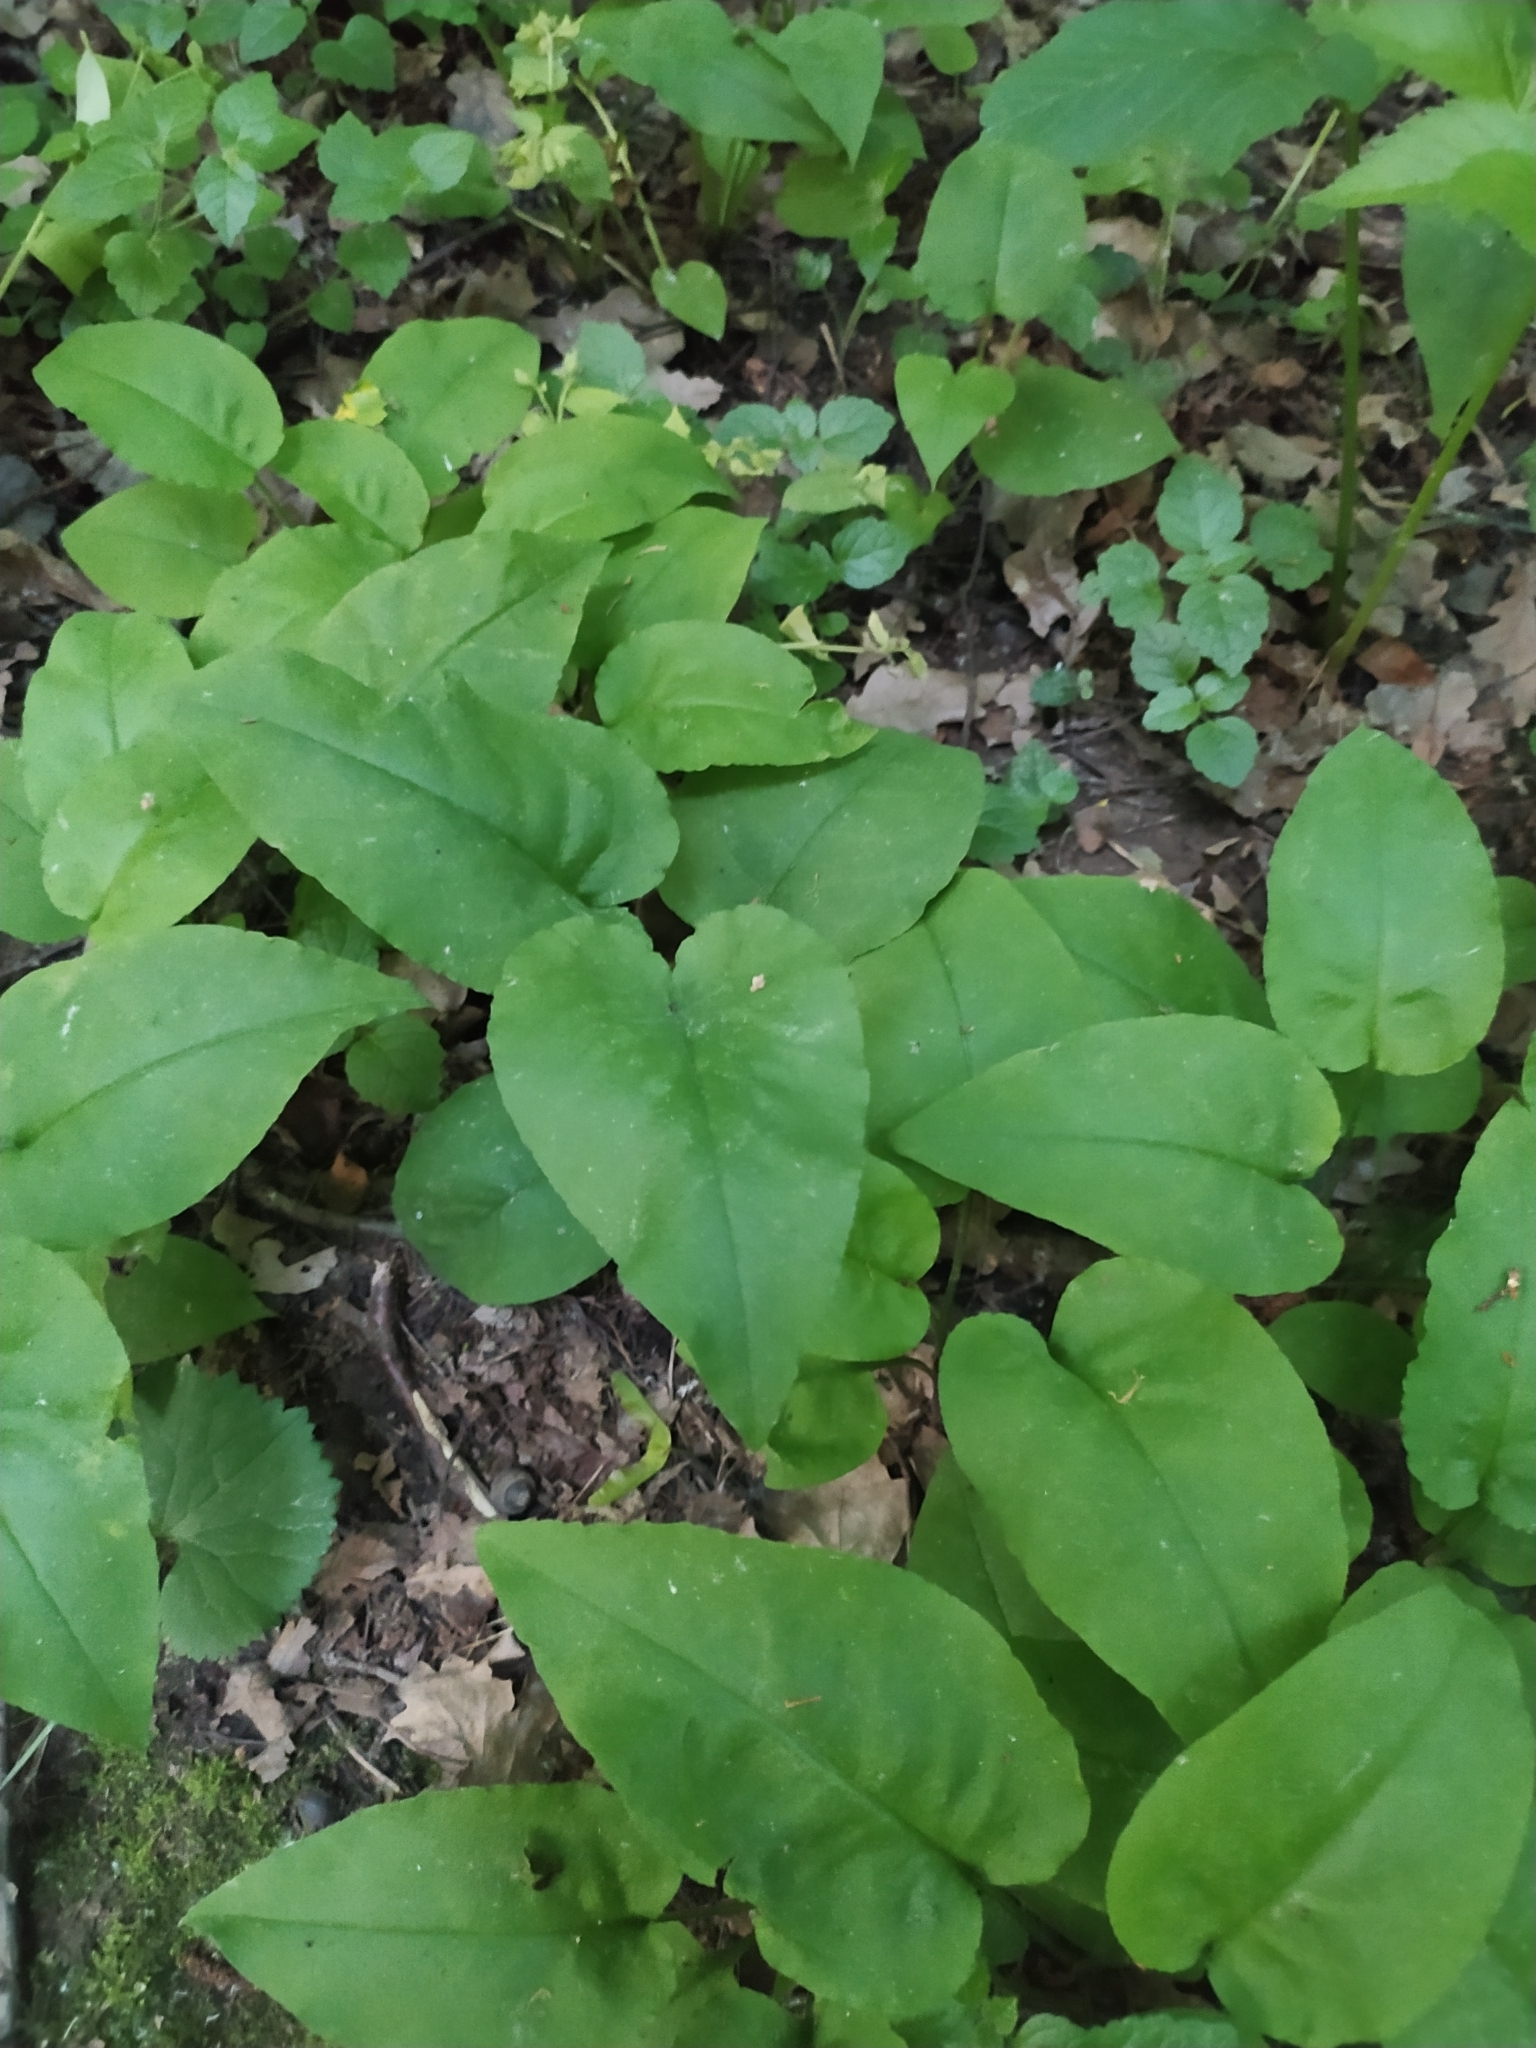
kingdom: Plantae
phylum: Tracheophyta
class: Magnoliopsida
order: Boraginales
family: Boraginaceae
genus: Pulmonaria
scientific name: Pulmonaria obscura
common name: Suffolk lungwort
